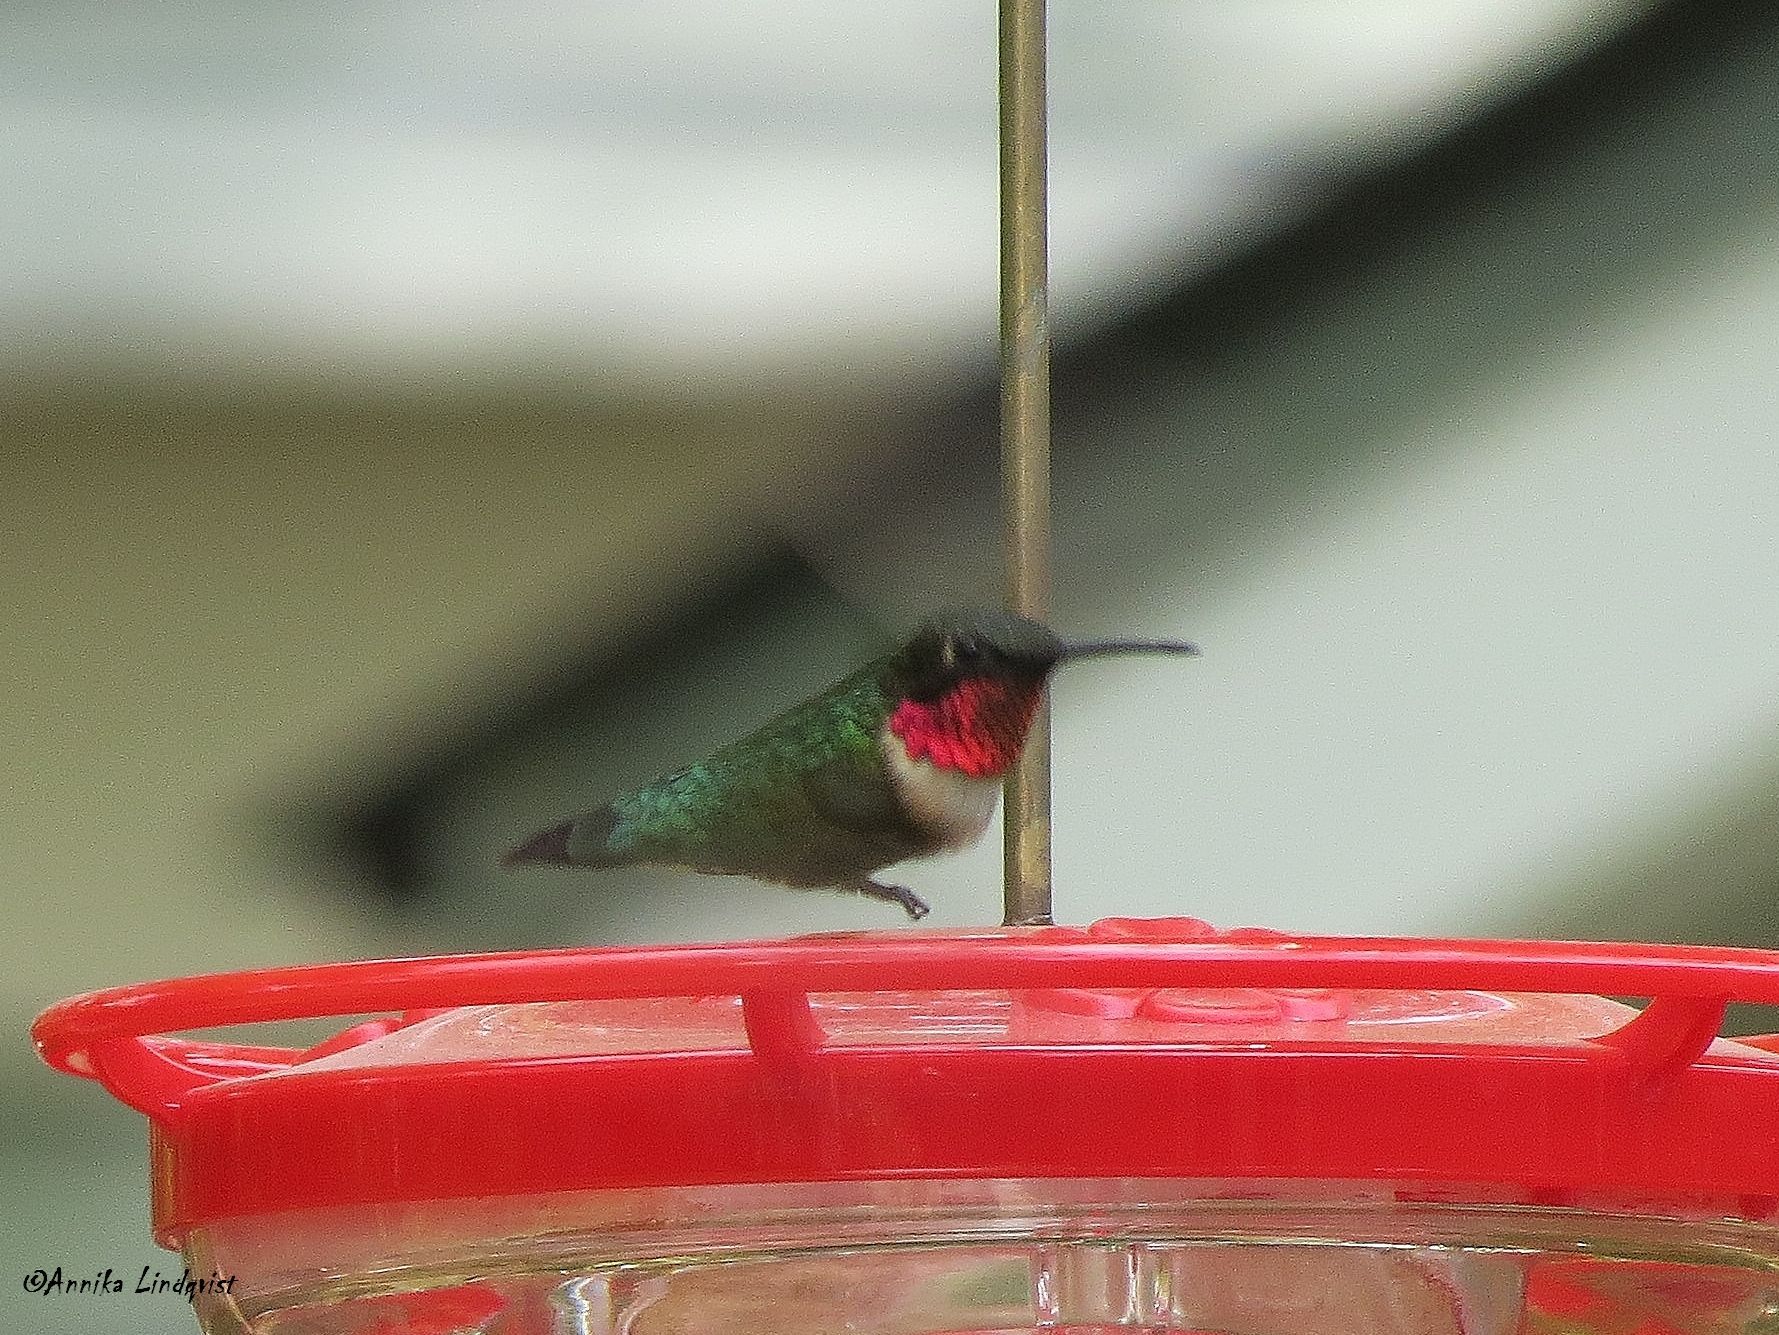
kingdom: Animalia
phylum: Chordata
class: Aves
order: Apodiformes
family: Trochilidae
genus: Archilochus
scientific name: Archilochus colubris
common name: Ruby-throated hummingbird
